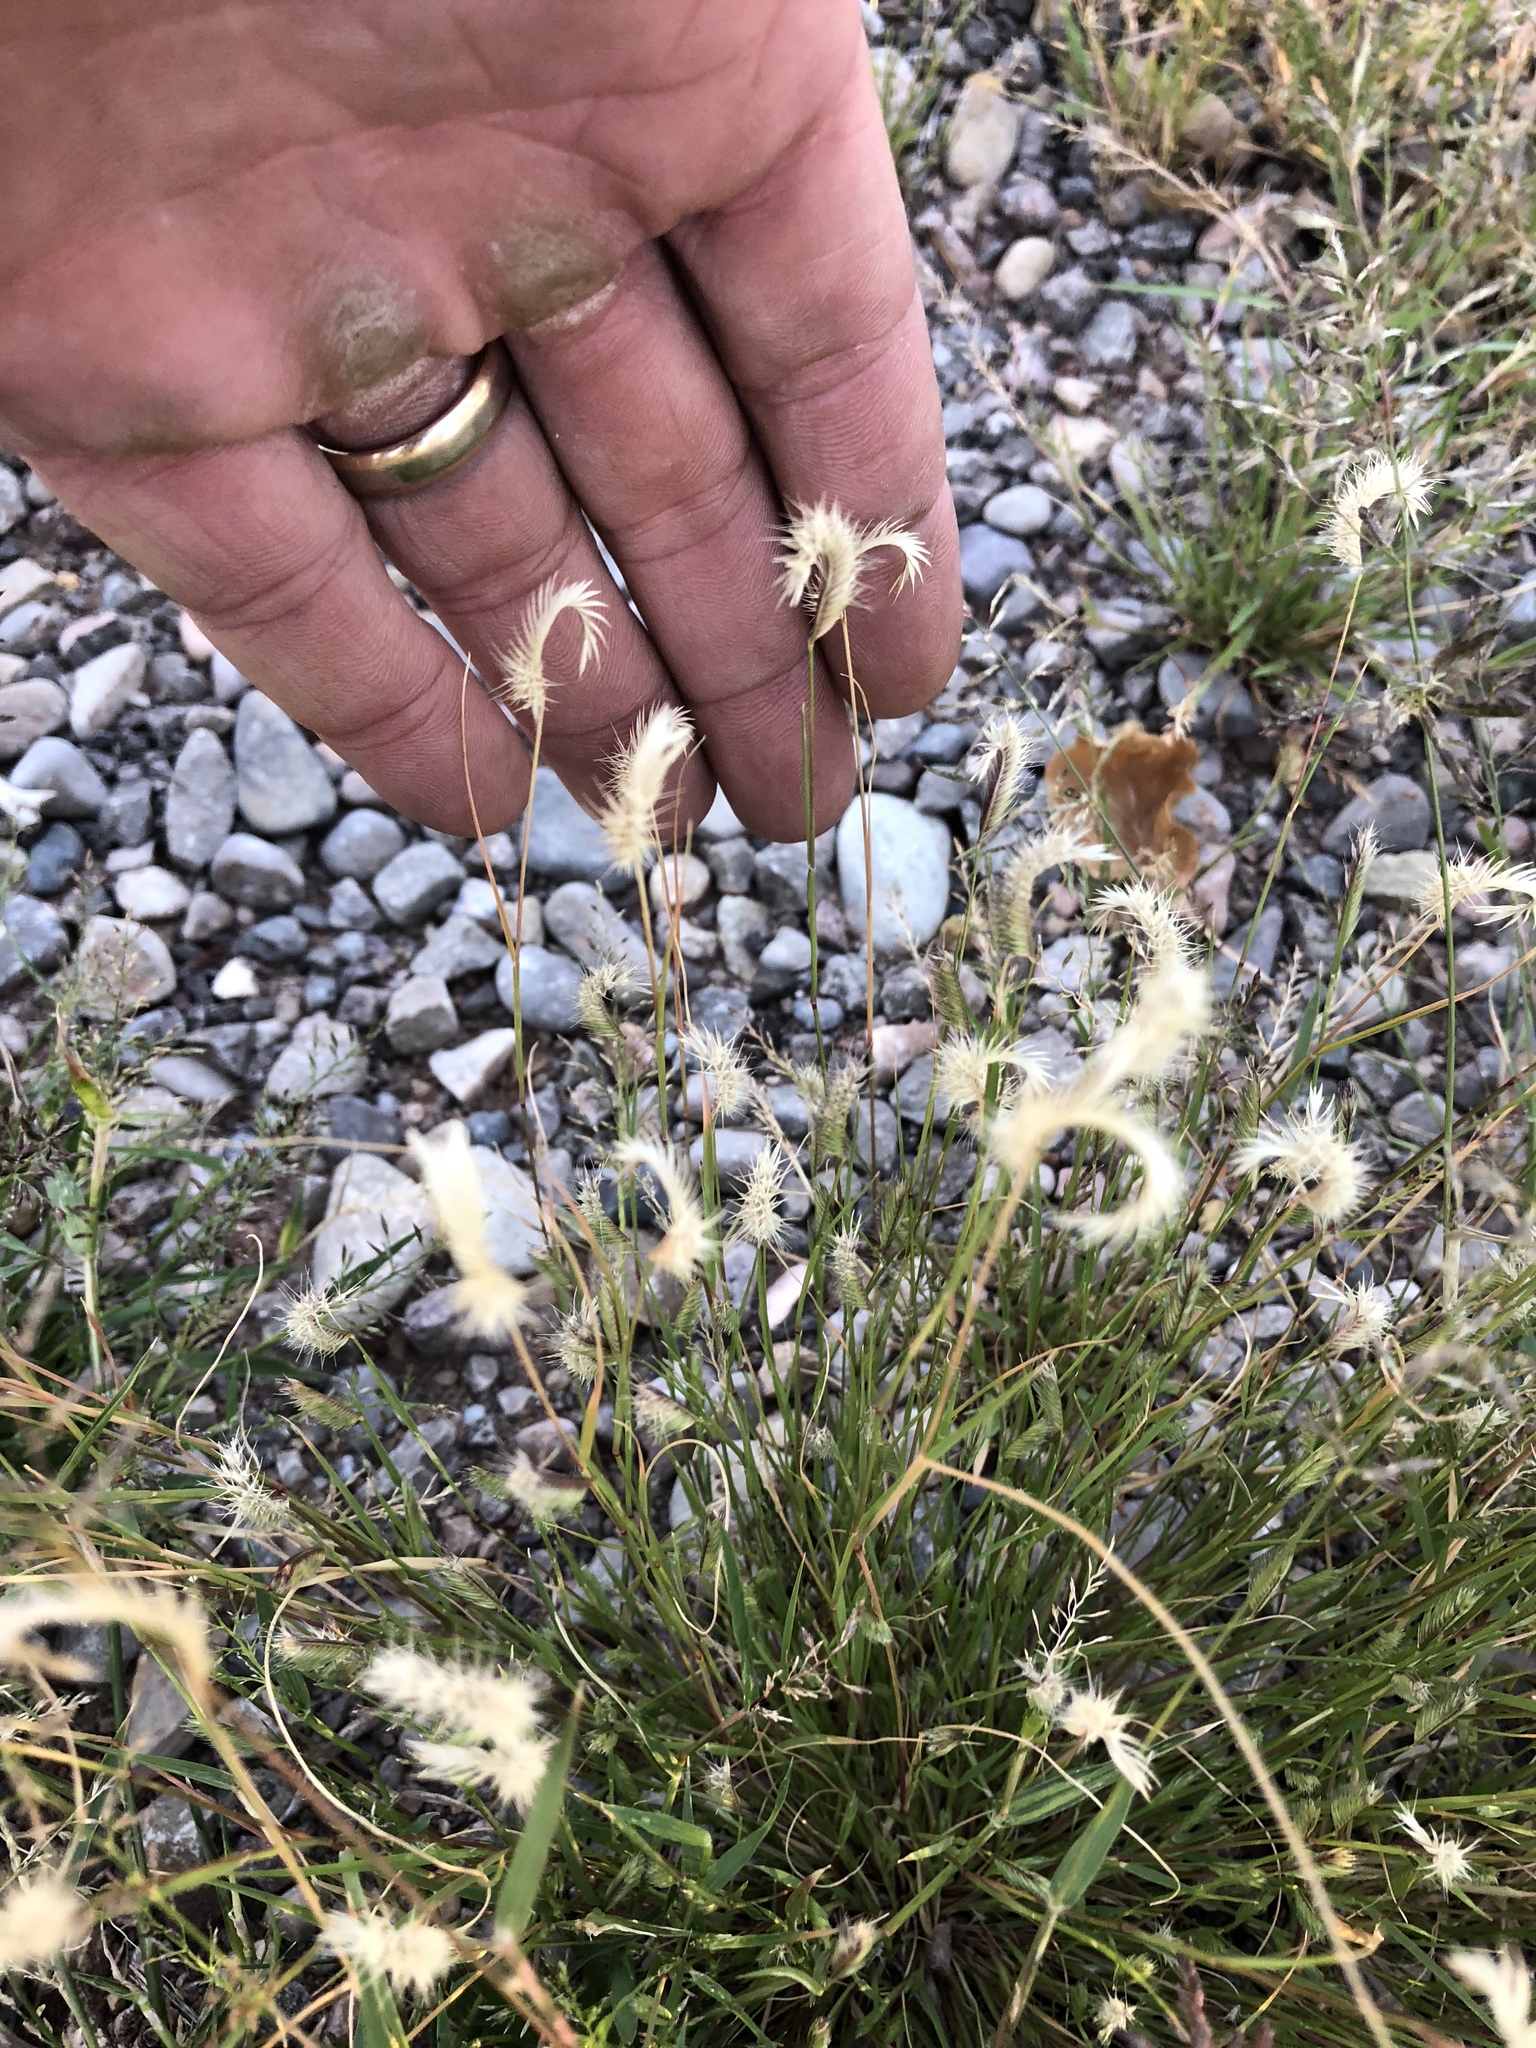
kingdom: Plantae
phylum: Tracheophyta
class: Liliopsida
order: Poales
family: Poaceae
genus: Bouteloua
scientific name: Bouteloua gracilis
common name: Blue grama
